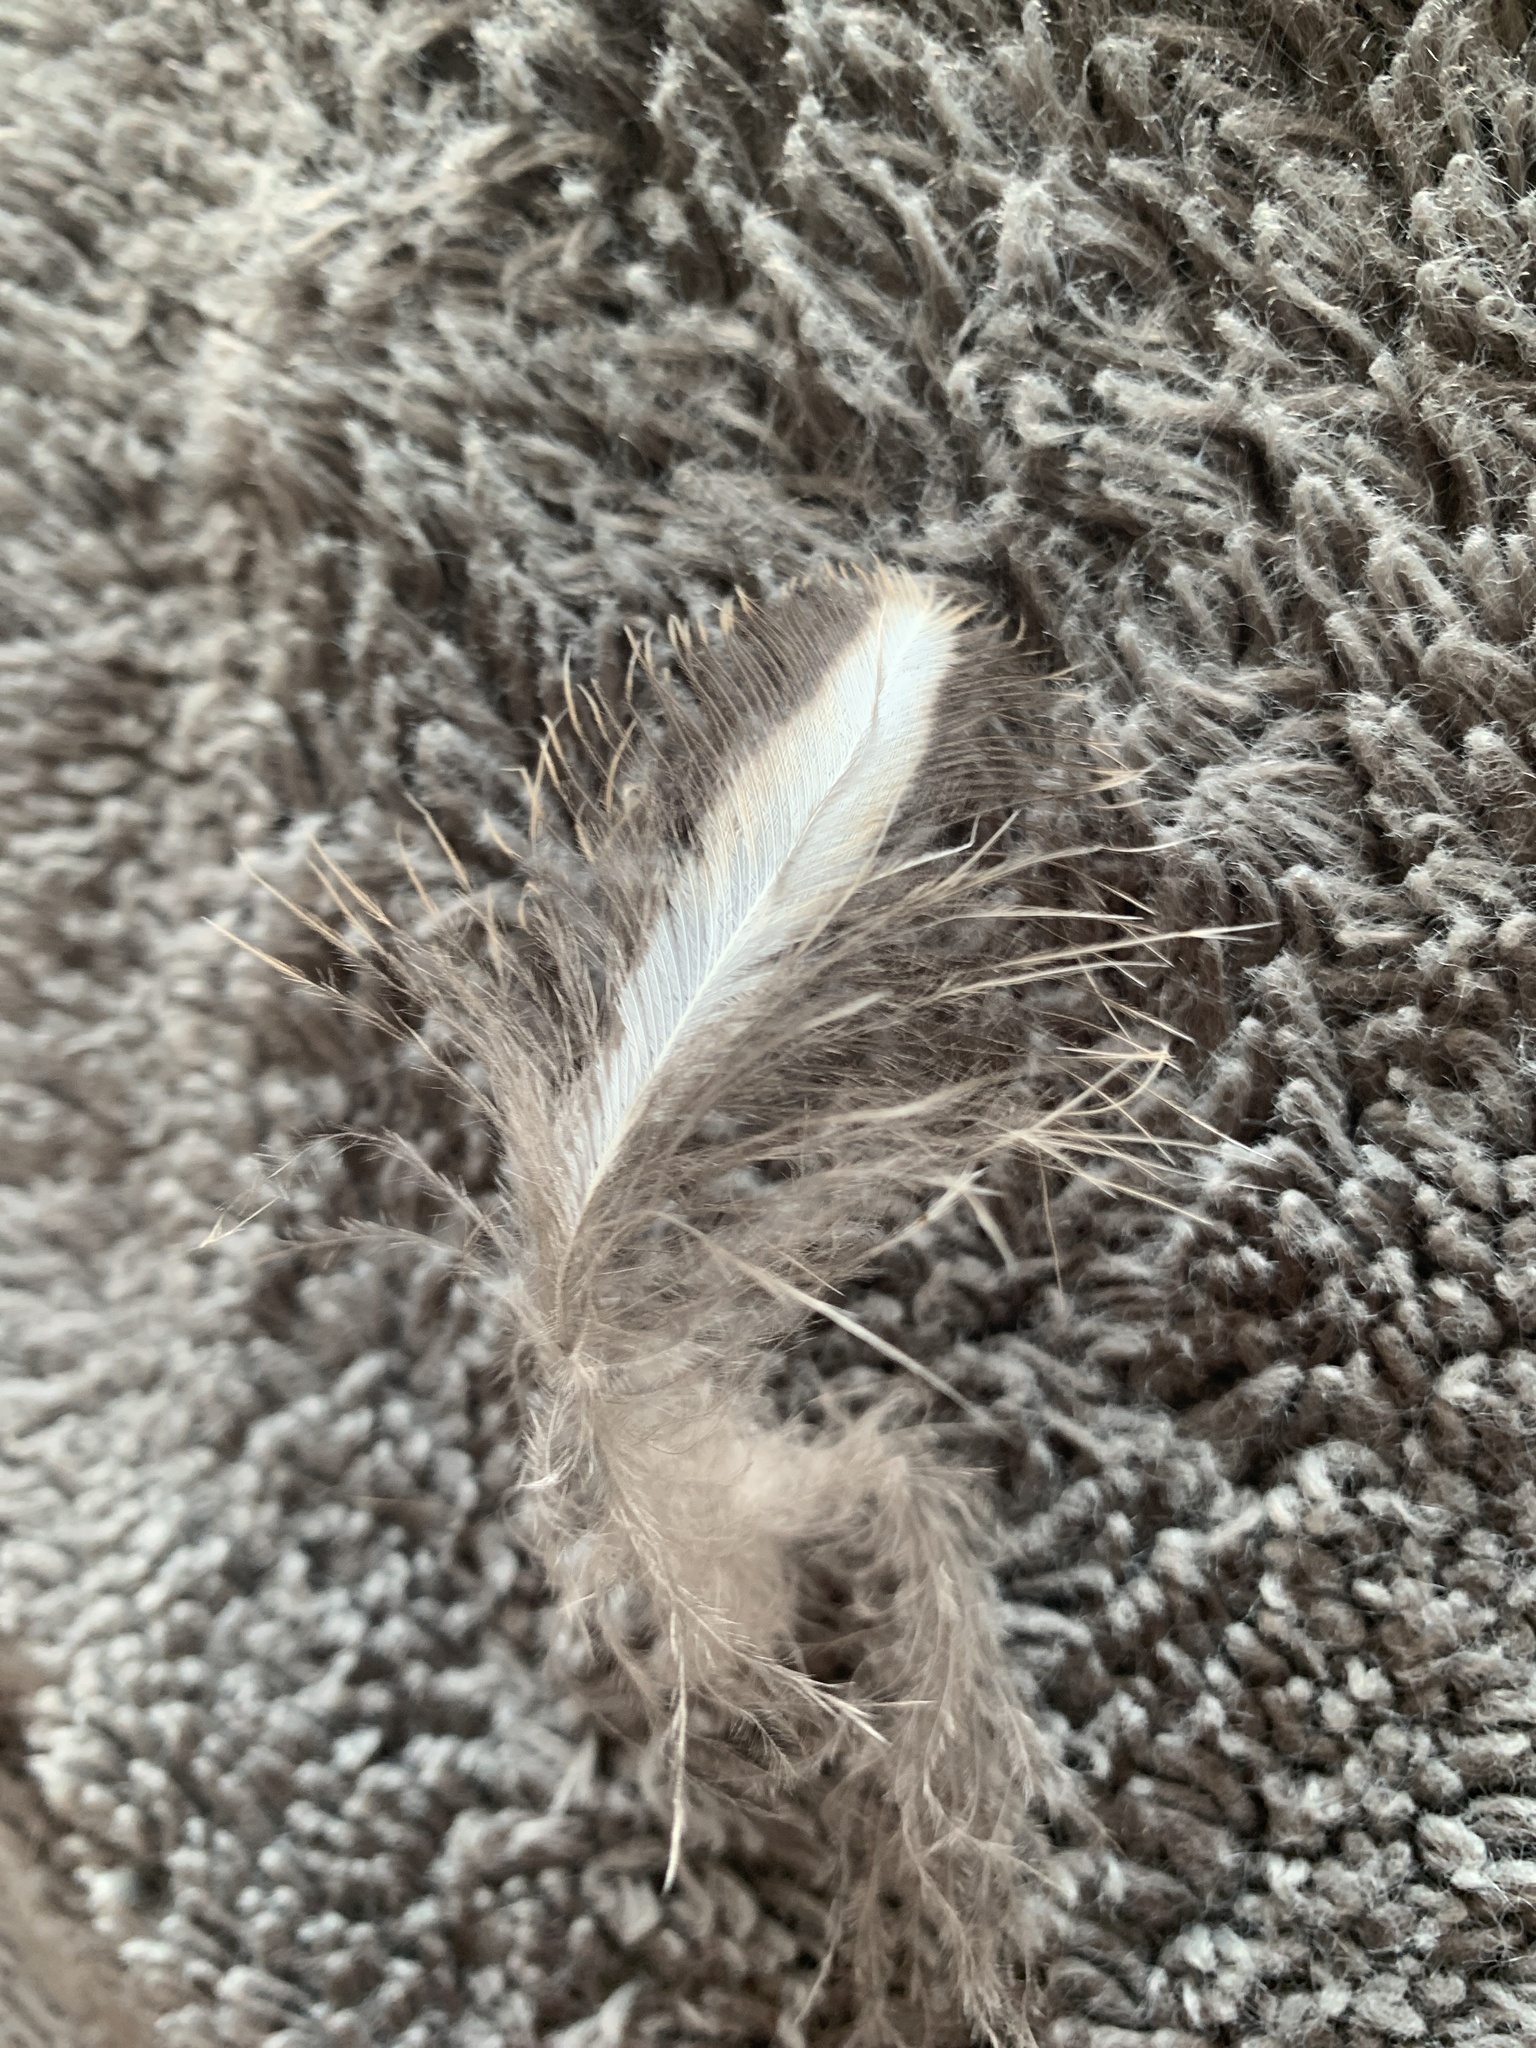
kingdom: Animalia
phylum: Chordata
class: Aves
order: Pelecaniformes
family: Ardeidae
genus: Ardea
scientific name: Ardea herodias
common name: Great blue heron
